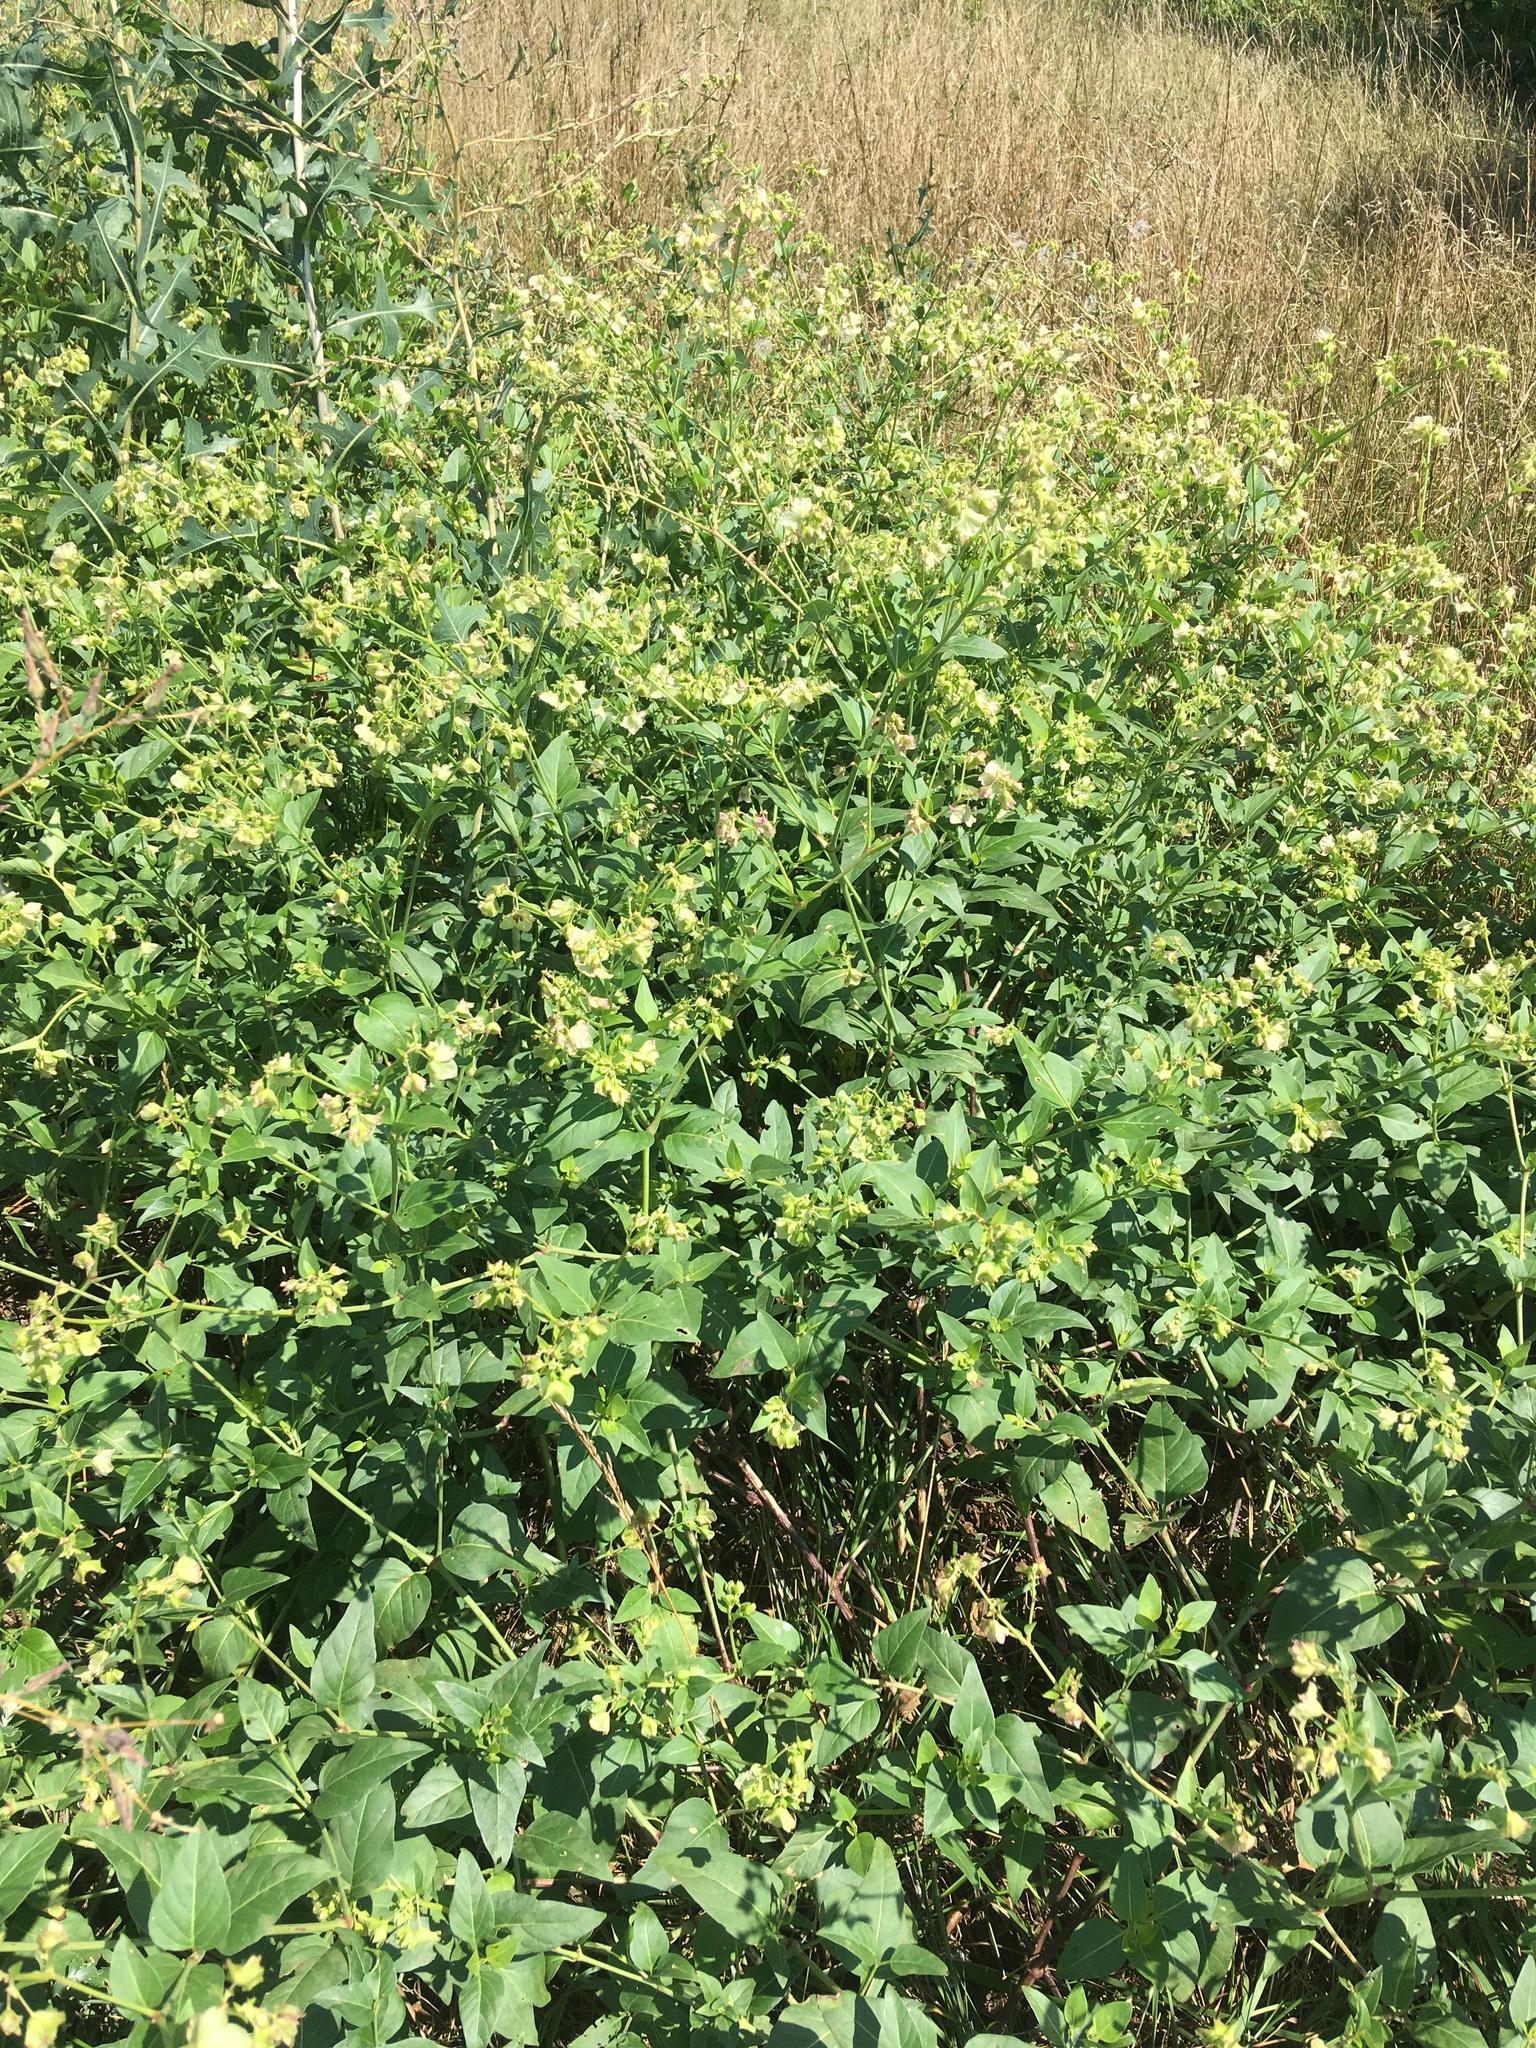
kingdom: Plantae
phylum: Tracheophyta
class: Magnoliopsida
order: Caryophyllales
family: Nyctaginaceae
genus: Mirabilis
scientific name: Mirabilis nyctaginea
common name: Umbrella wort
